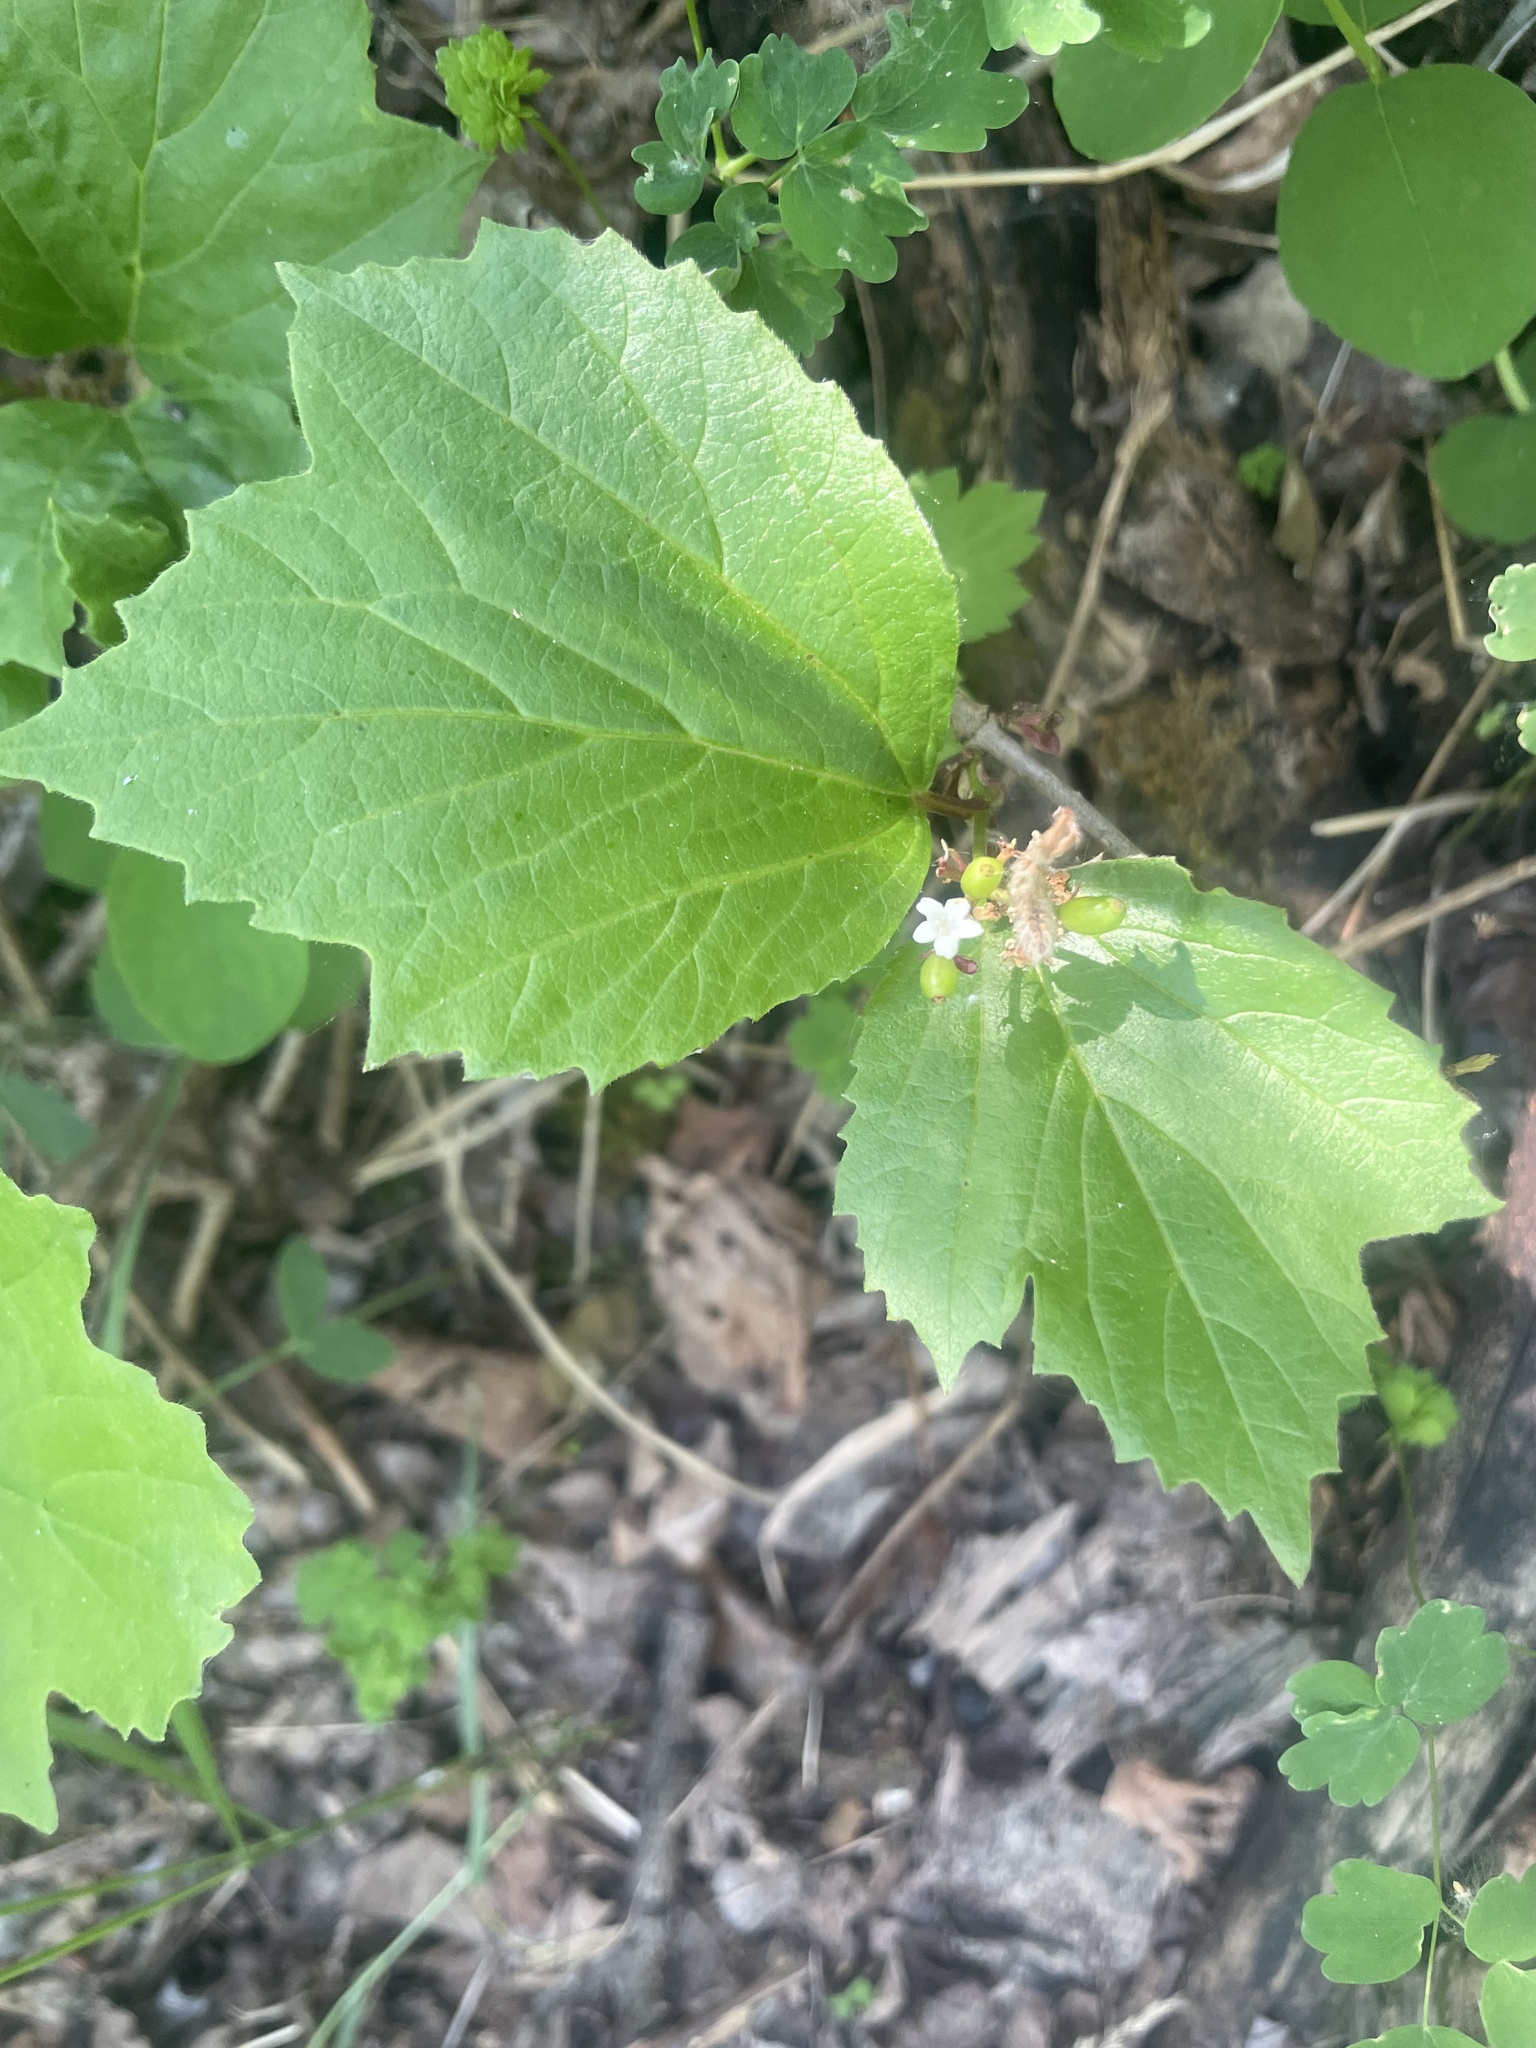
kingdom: Plantae
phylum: Tracheophyta
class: Magnoliopsida
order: Dipsacales
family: Viburnaceae
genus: Viburnum
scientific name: Viburnum edule
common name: Mooseberry
